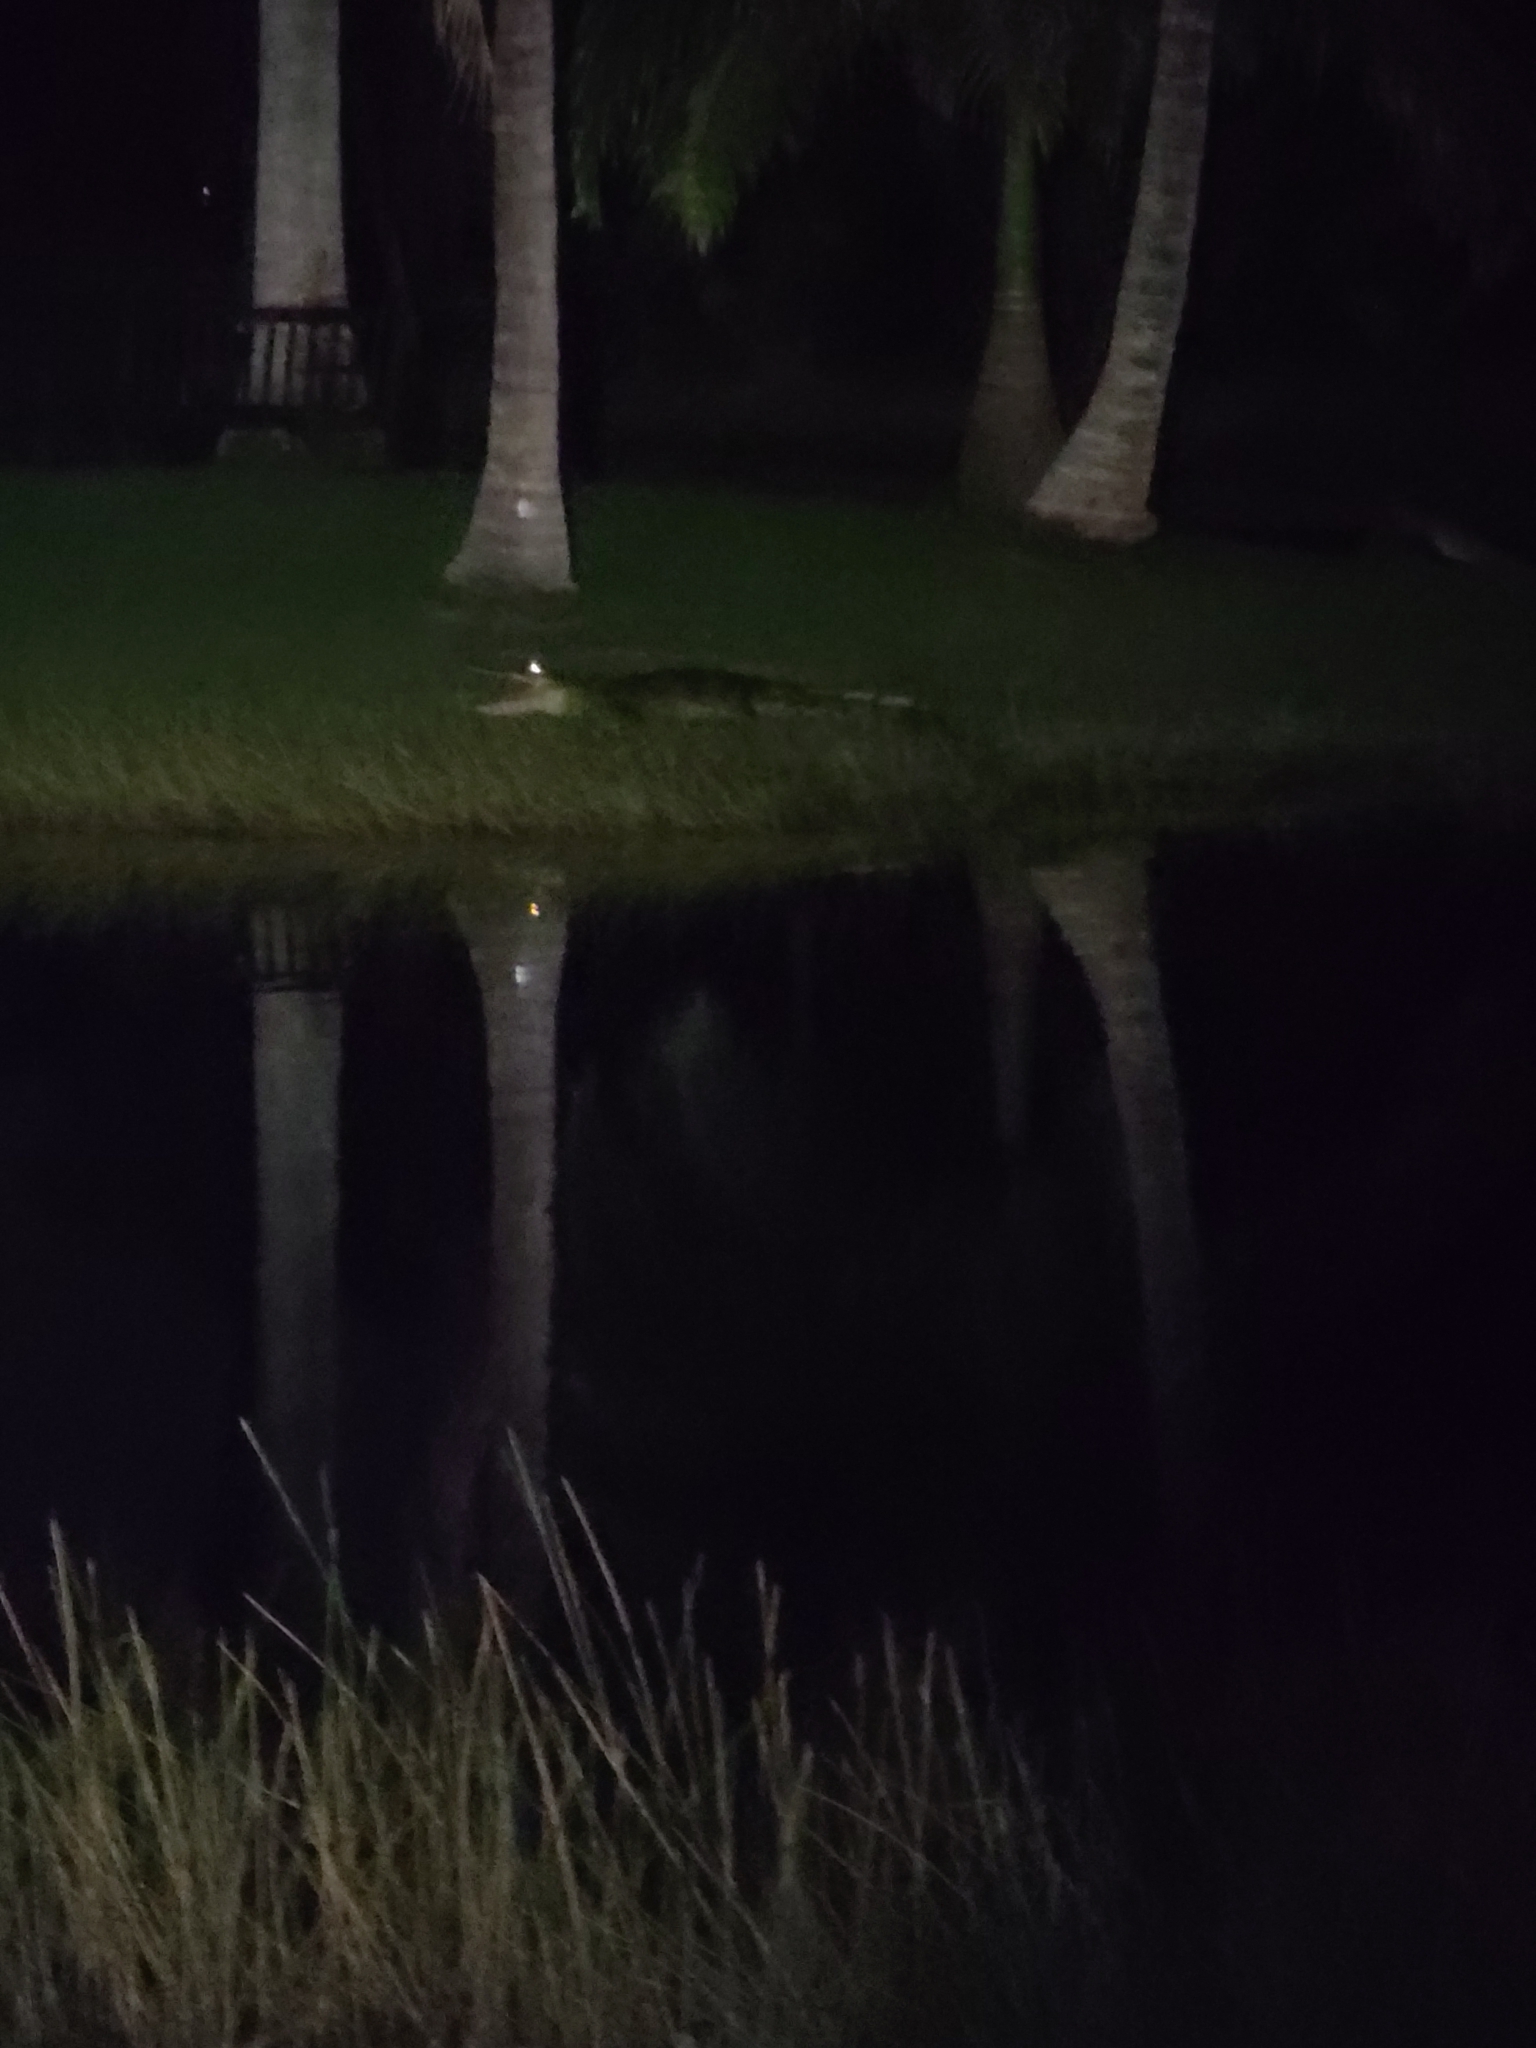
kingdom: Animalia
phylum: Chordata
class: Crocodylia
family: Crocodylidae
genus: Crocodylus
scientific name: Crocodylus acutus
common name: American crocodile
